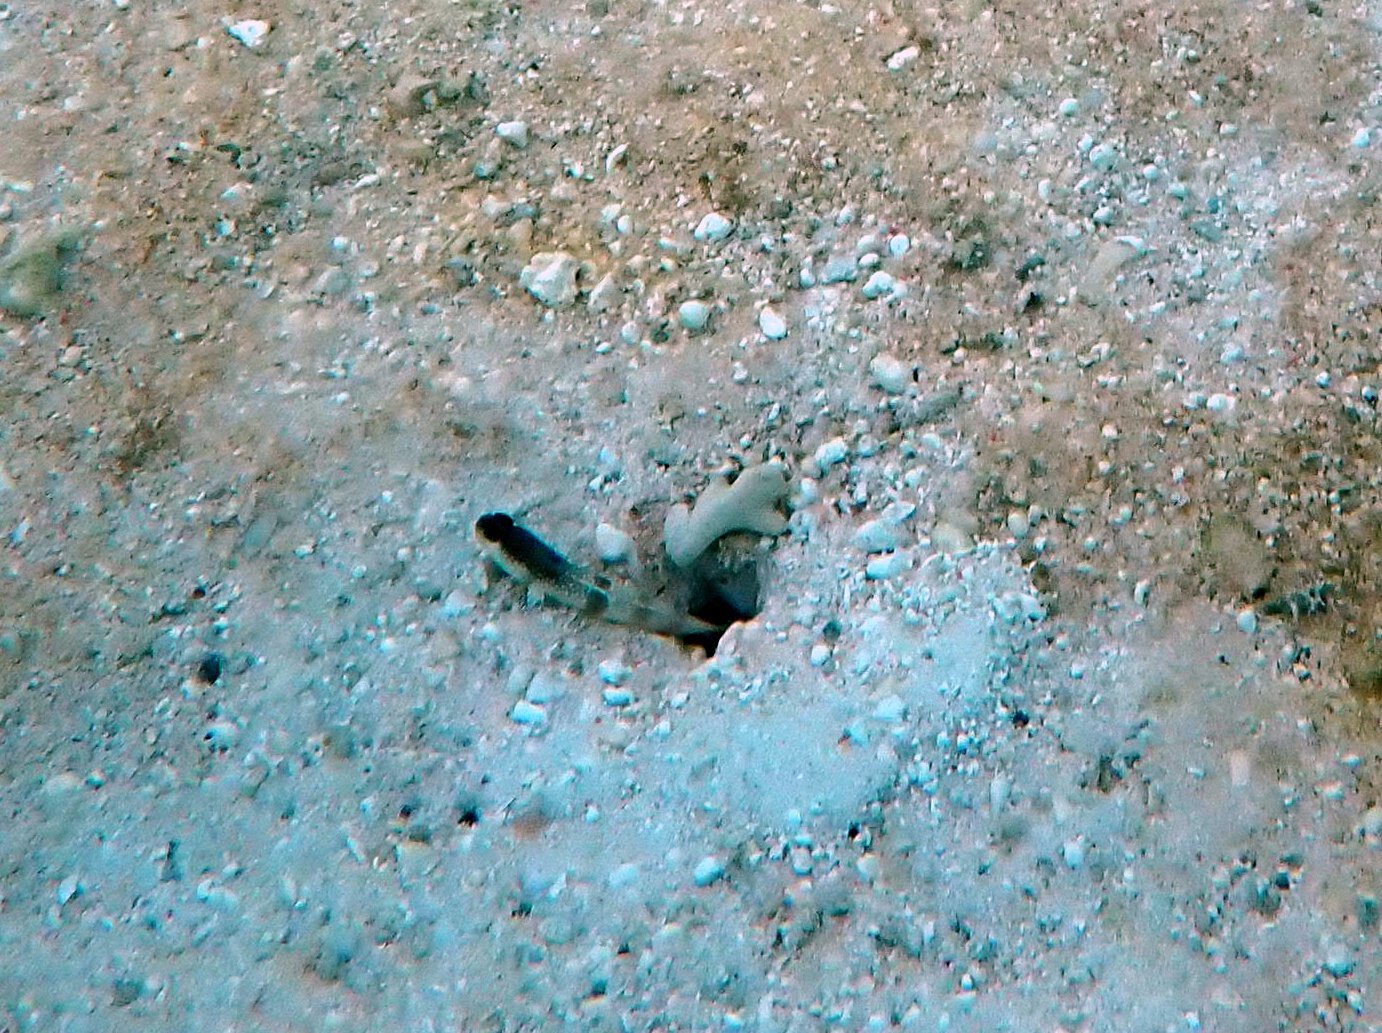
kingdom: Animalia
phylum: Chordata
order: Perciformes
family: Gobiidae
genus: Cryptocentrus
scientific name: Cryptocentrus cinctus
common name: Yellow shrimp goby
